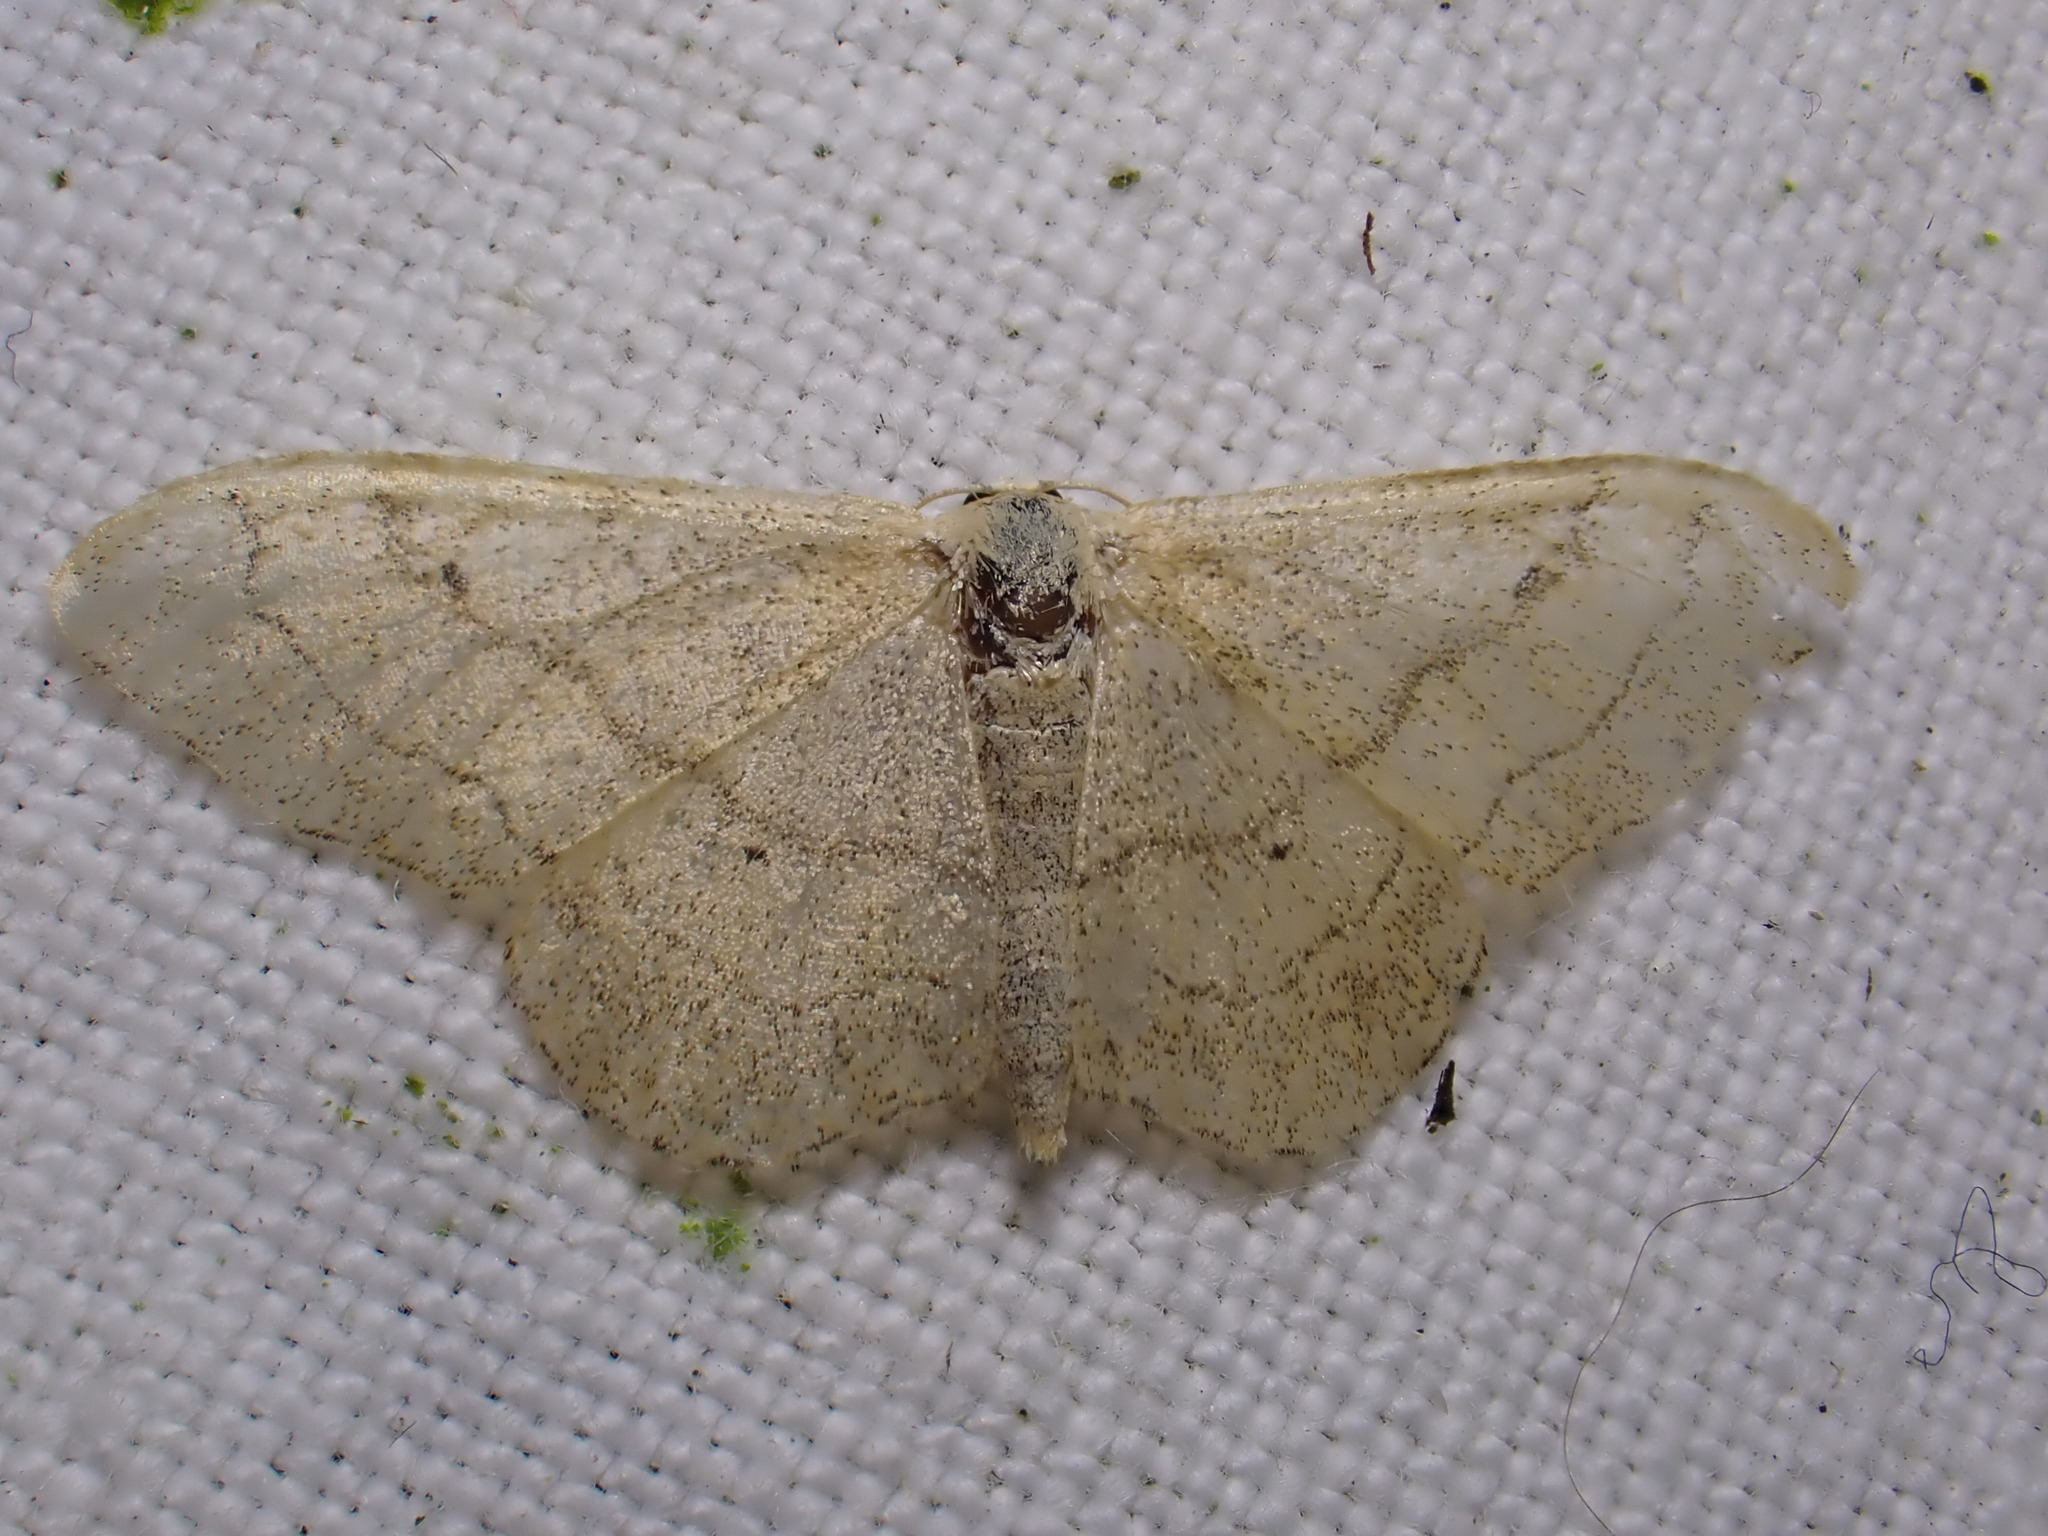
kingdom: Animalia
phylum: Arthropoda
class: Insecta
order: Lepidoptera
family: Geometridae
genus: Idaea
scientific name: Idaea aversata
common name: Riband wave
